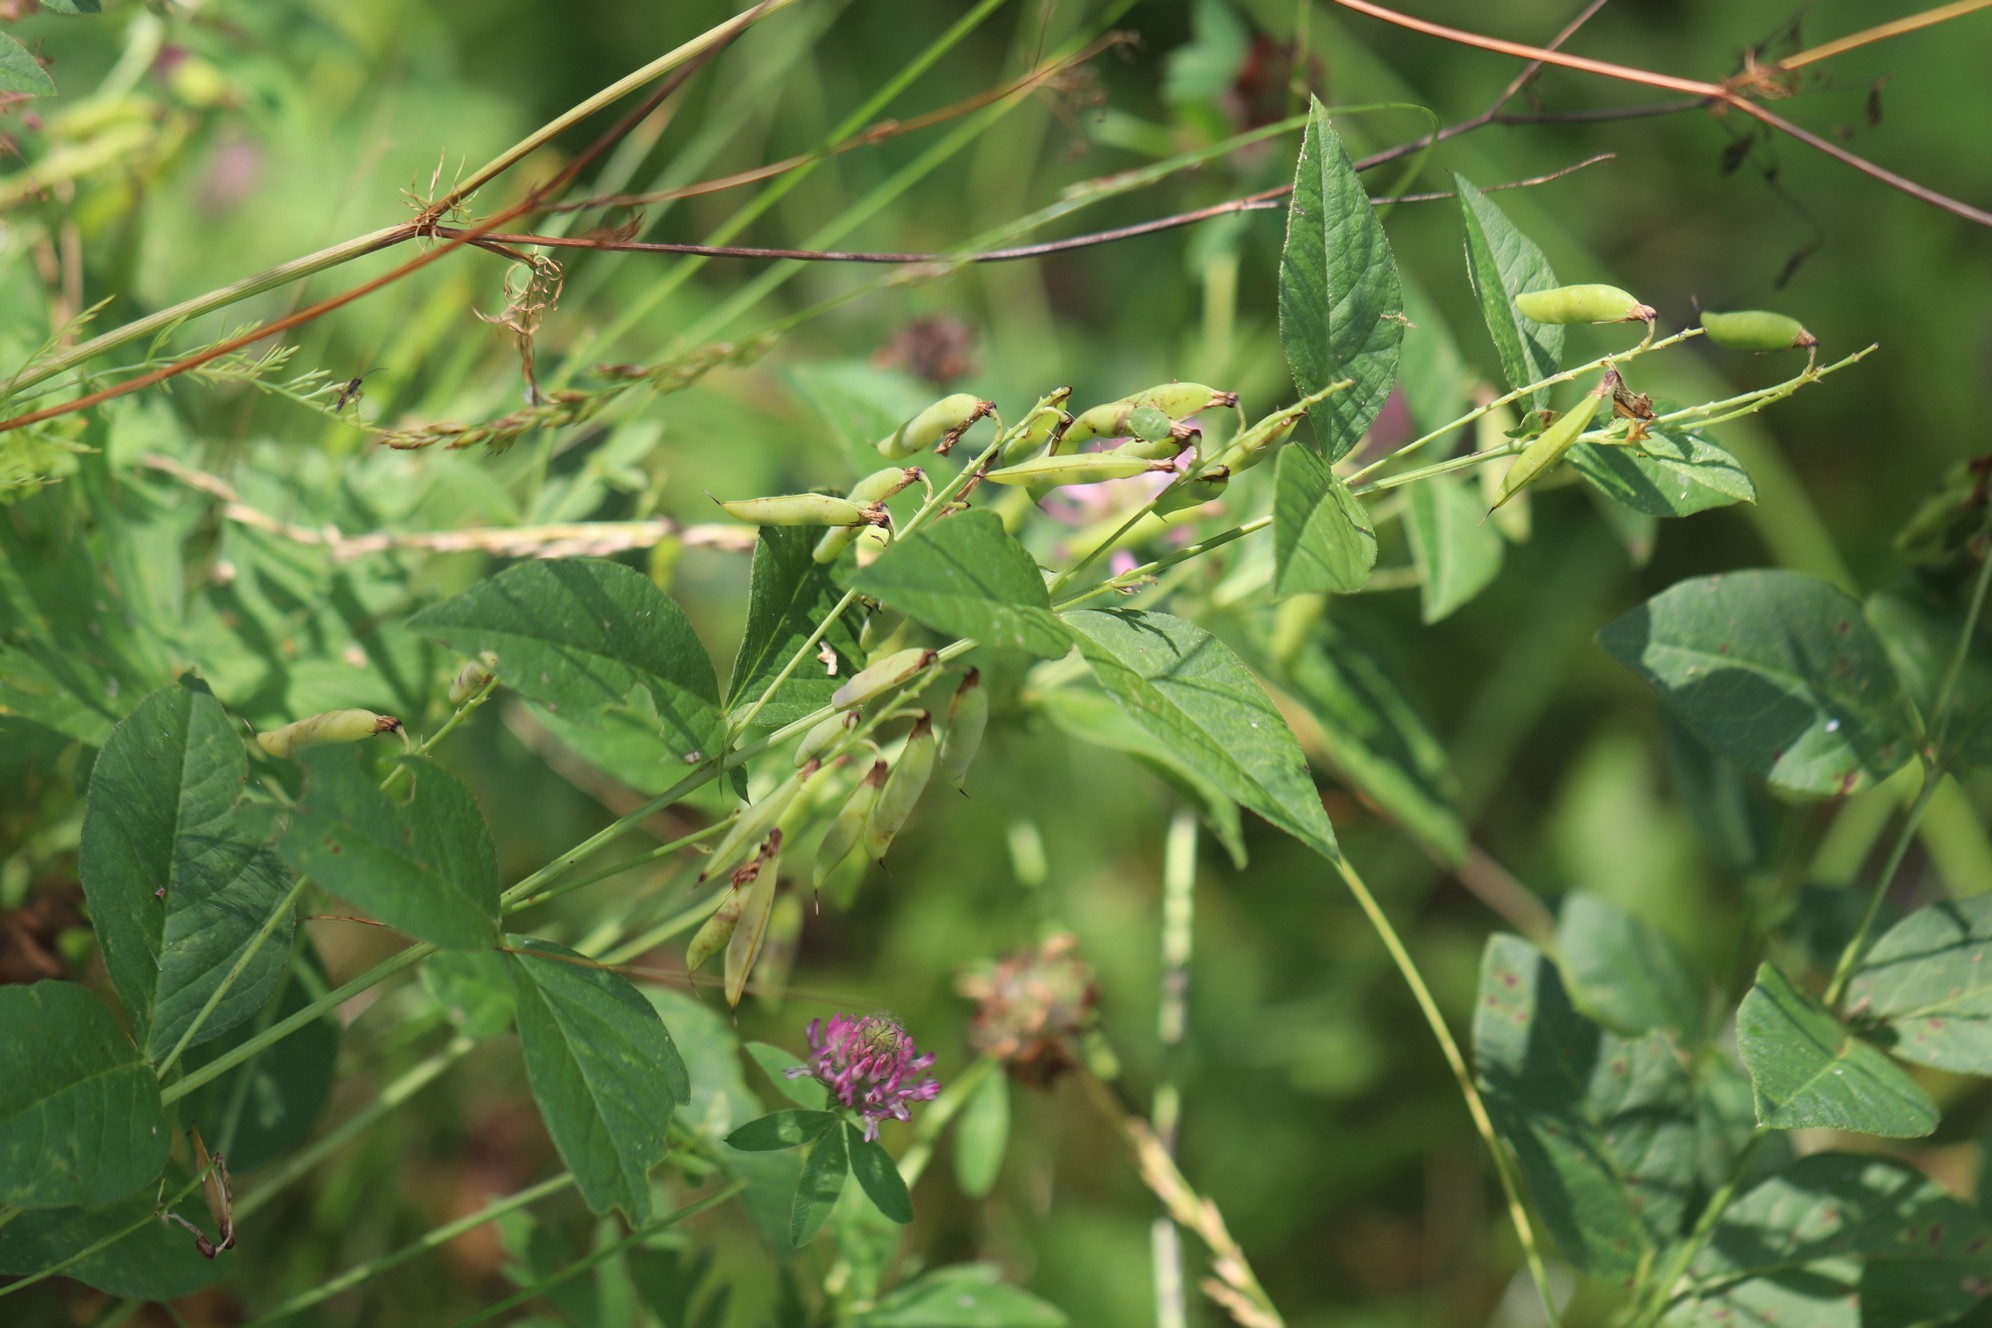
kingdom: Plantae
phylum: Tracheophyta
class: Magnoliopsida
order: Fabales
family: Fabaceae
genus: Vicia
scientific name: Vicia unijuga
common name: Two-leaf vetch
